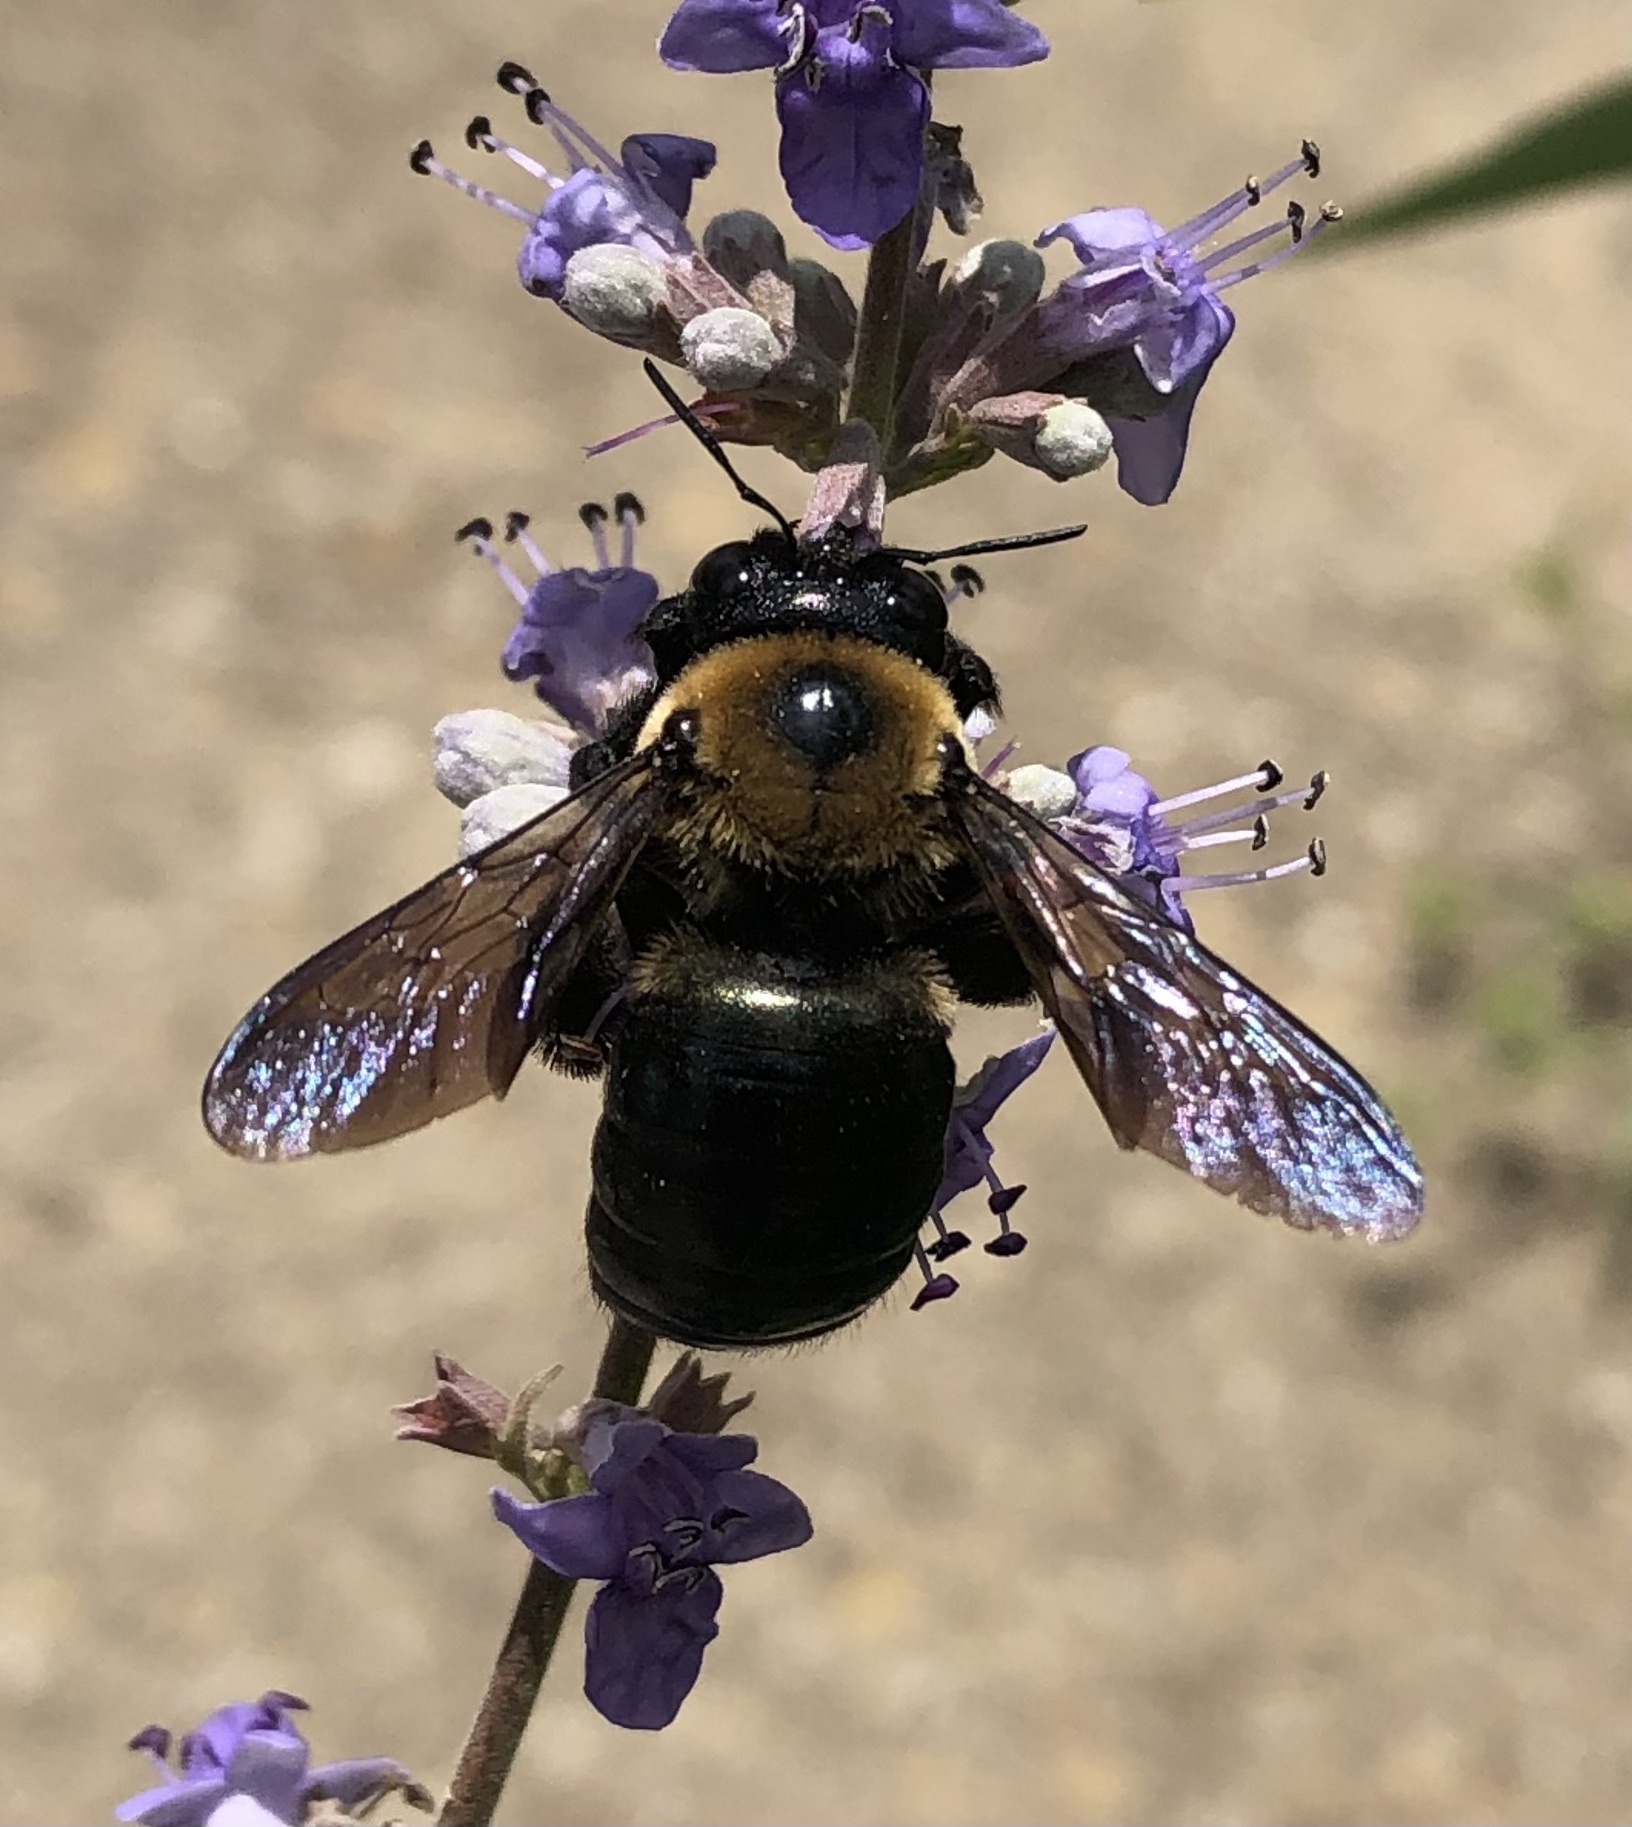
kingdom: Animalia
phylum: Arthropoda
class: Insecta
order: Hymenoptera
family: Apidae
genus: Xylocopa
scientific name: Xylocopa virginica
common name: Carpenter bee
